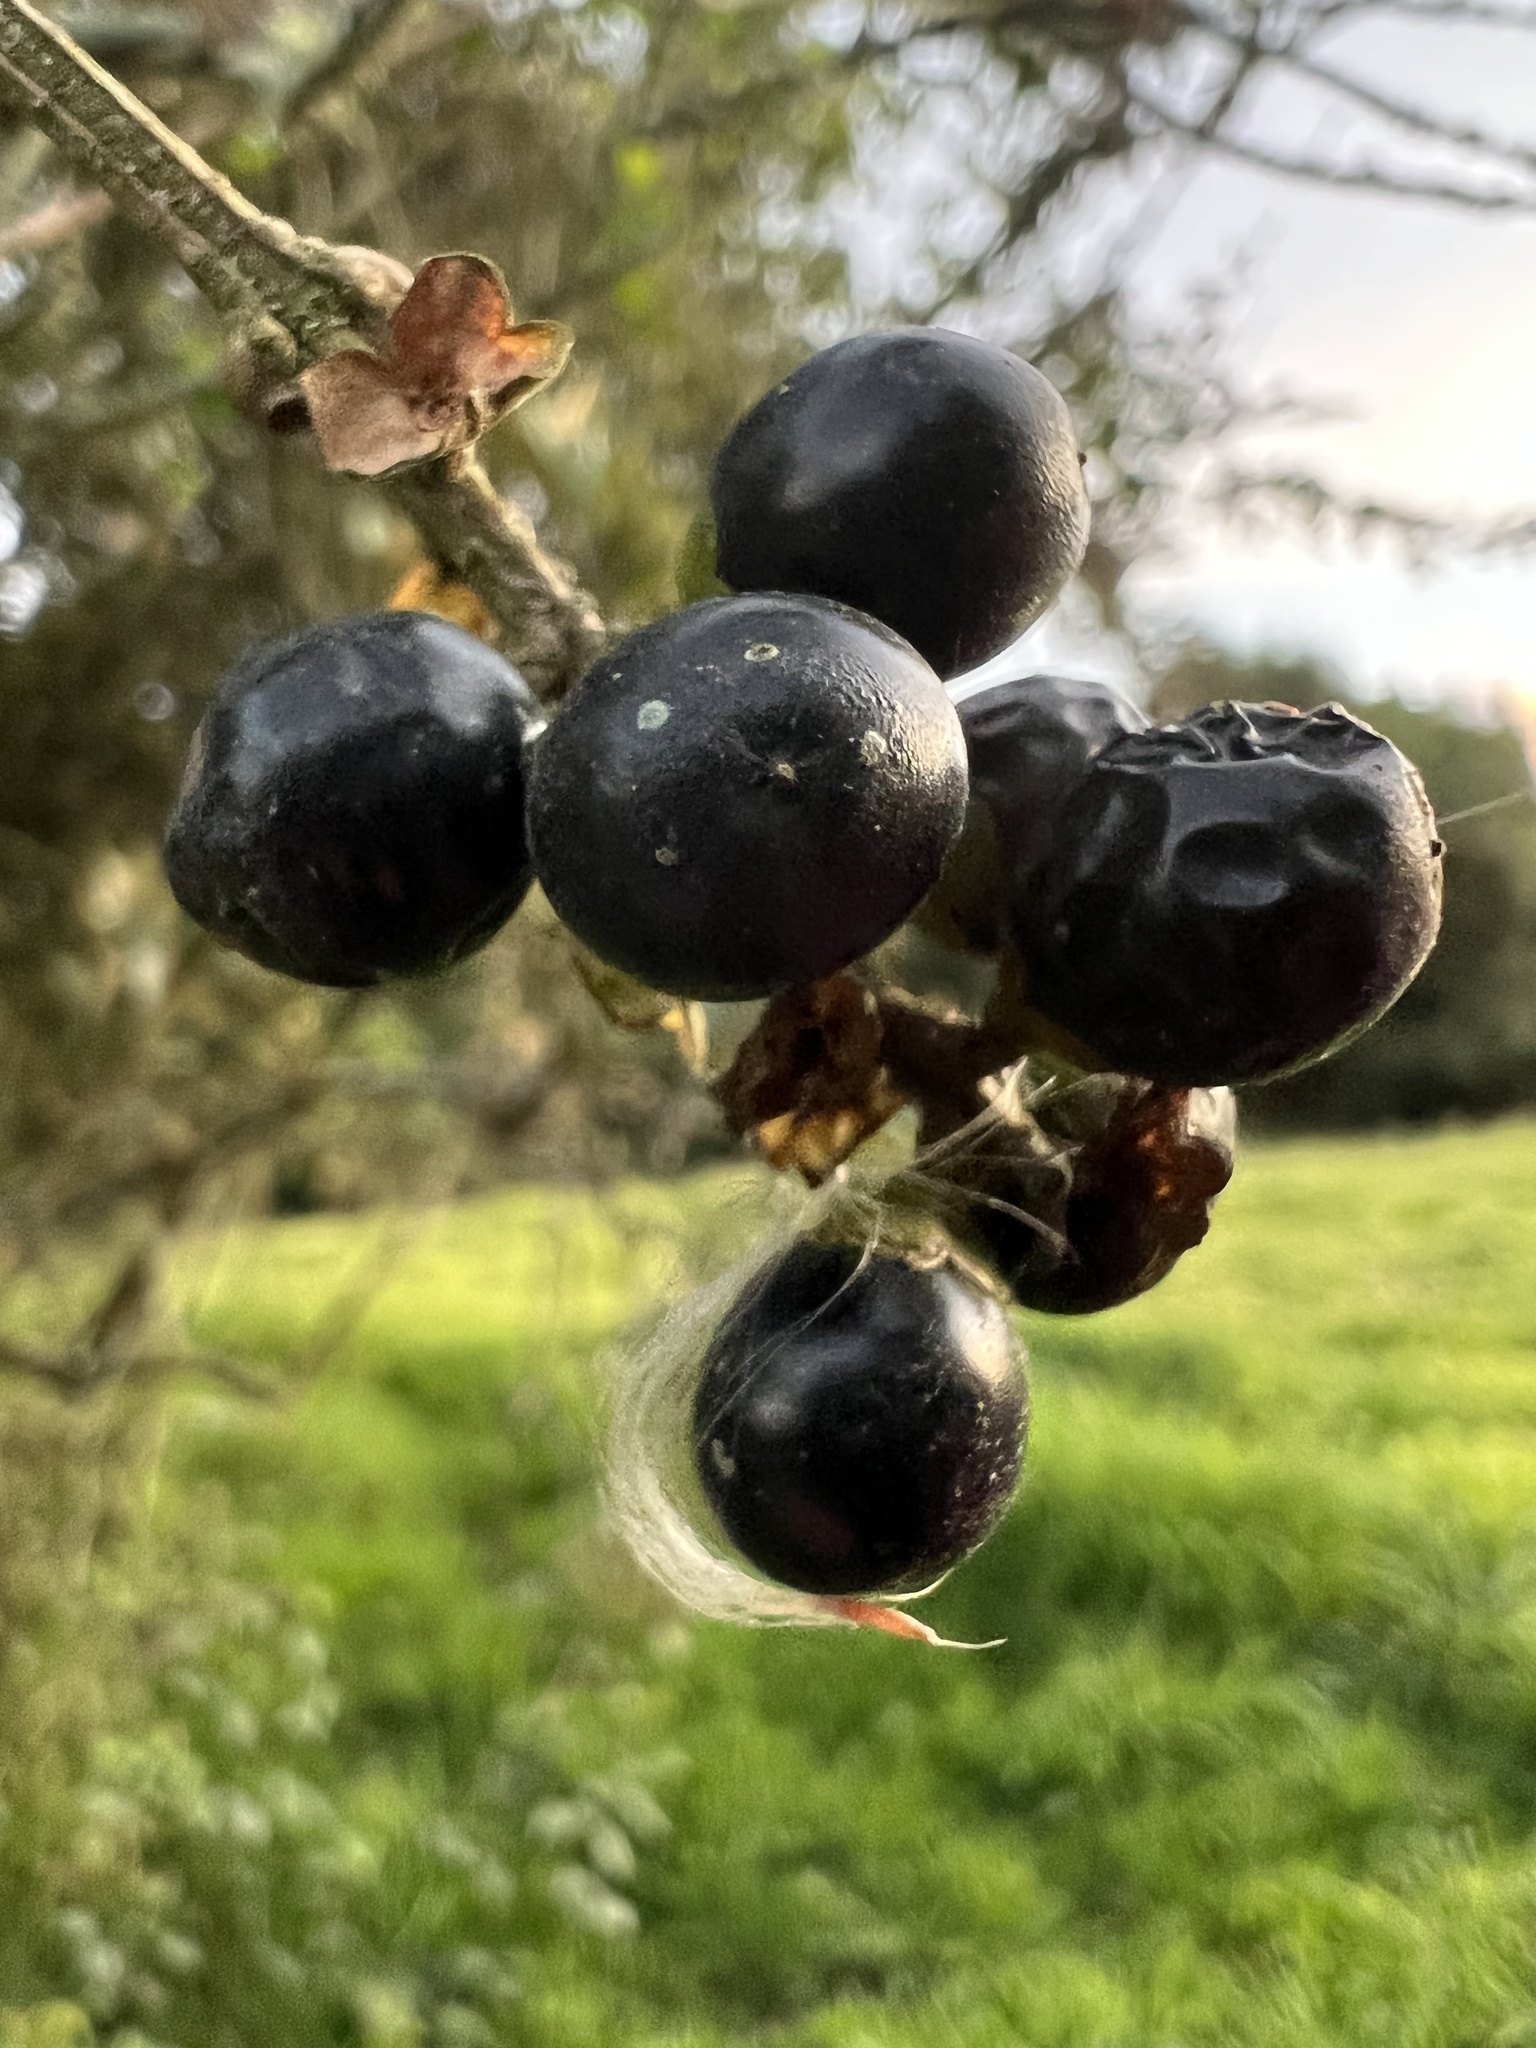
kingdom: Plantae
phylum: Tracheophyta
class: Magnoliopsida
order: Lamiales
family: Verbenaceae
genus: Citharexylum
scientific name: Citharexylum reticulatum
